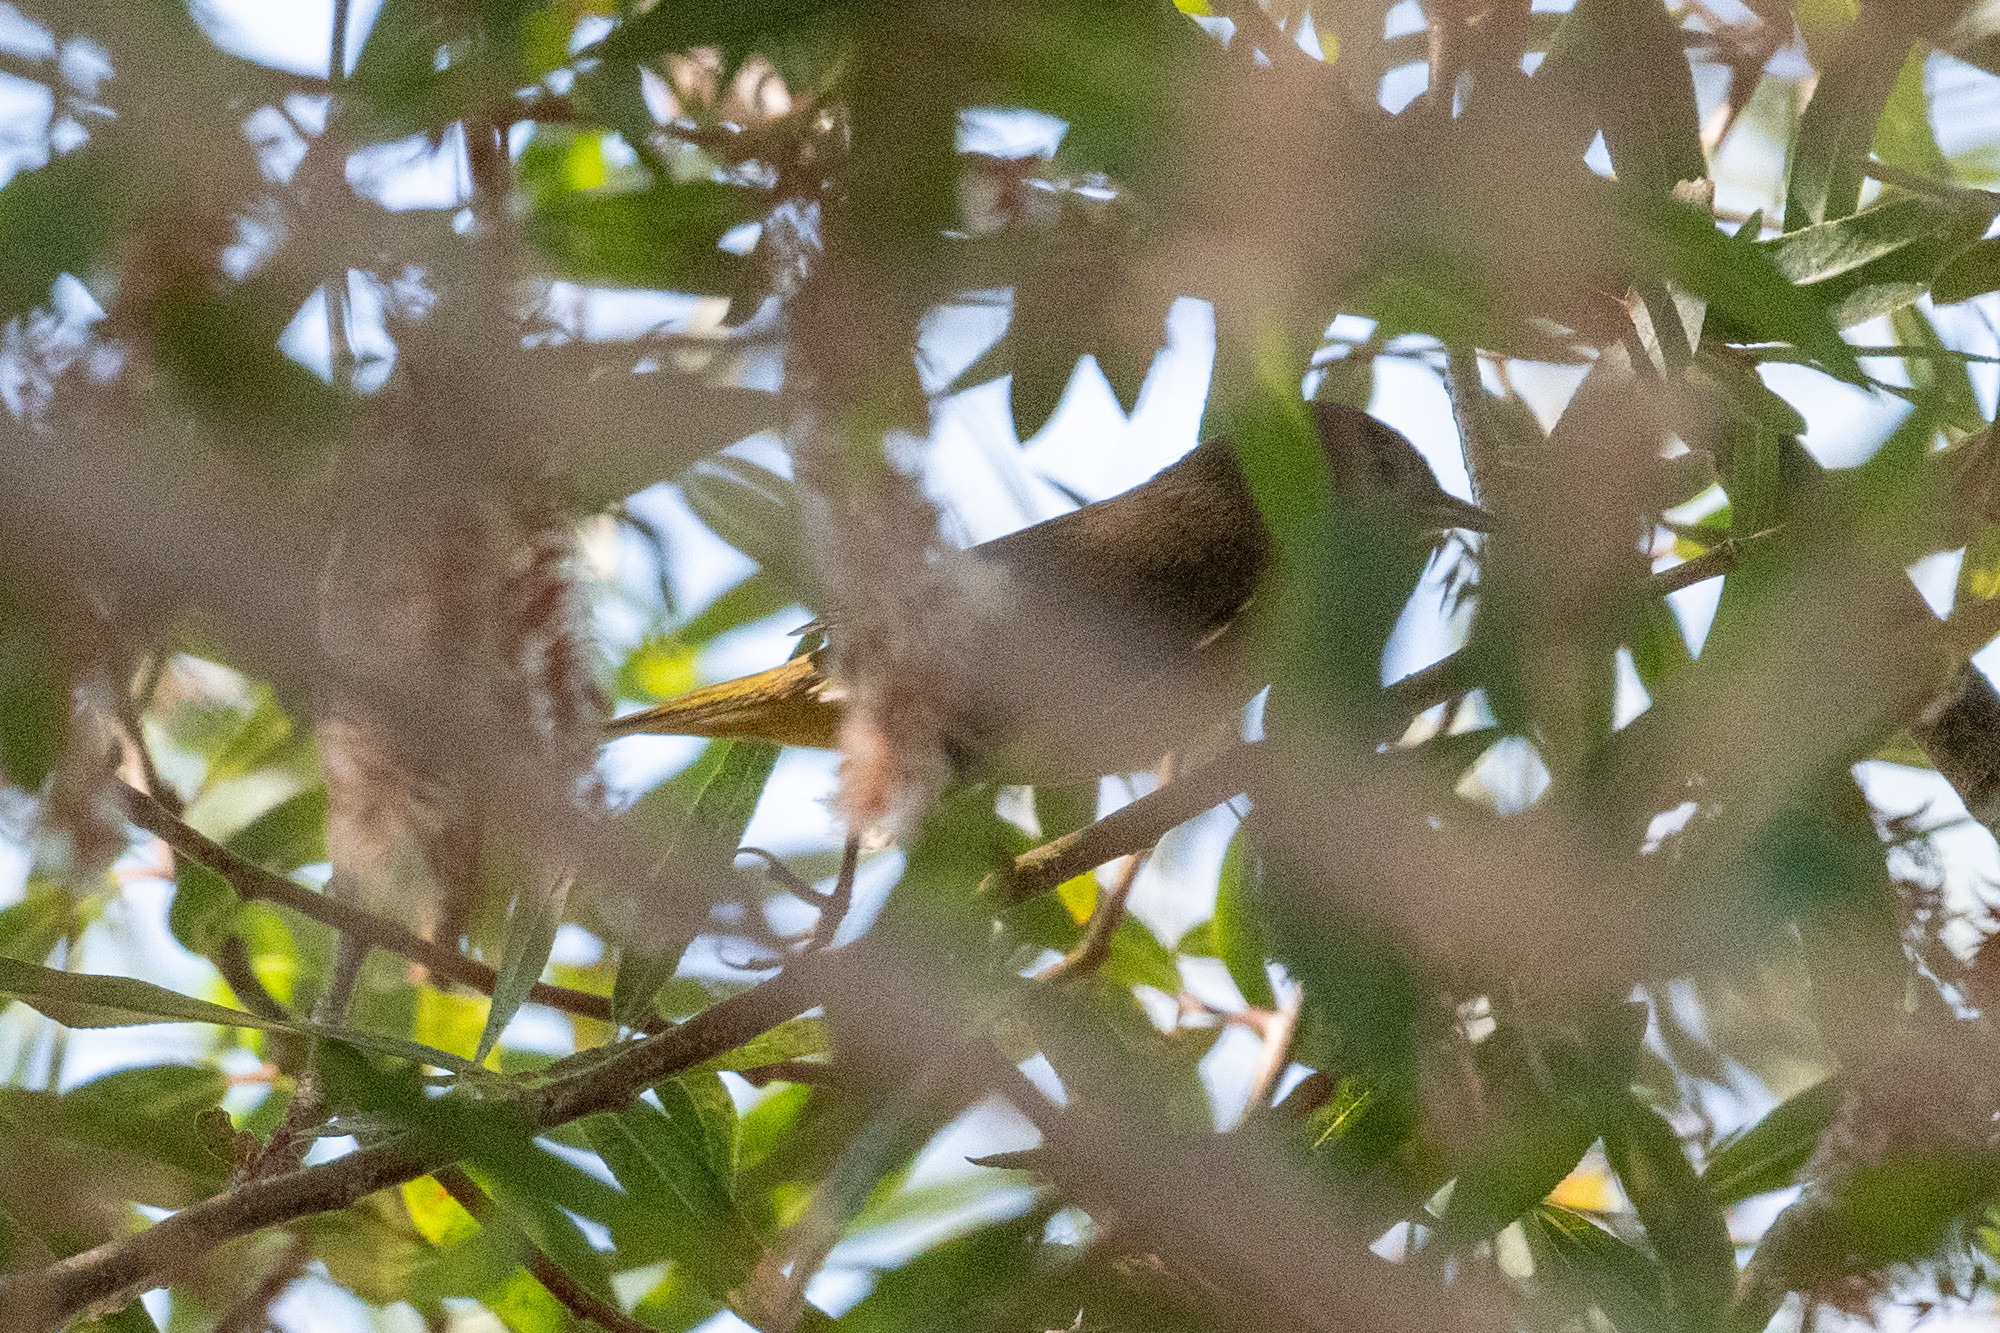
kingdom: Animalia
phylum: Chordata
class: Aves
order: Passeriformes
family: Parulidae
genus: Geothlypis
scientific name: Geothlypis trichas
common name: Common yellowthroat
